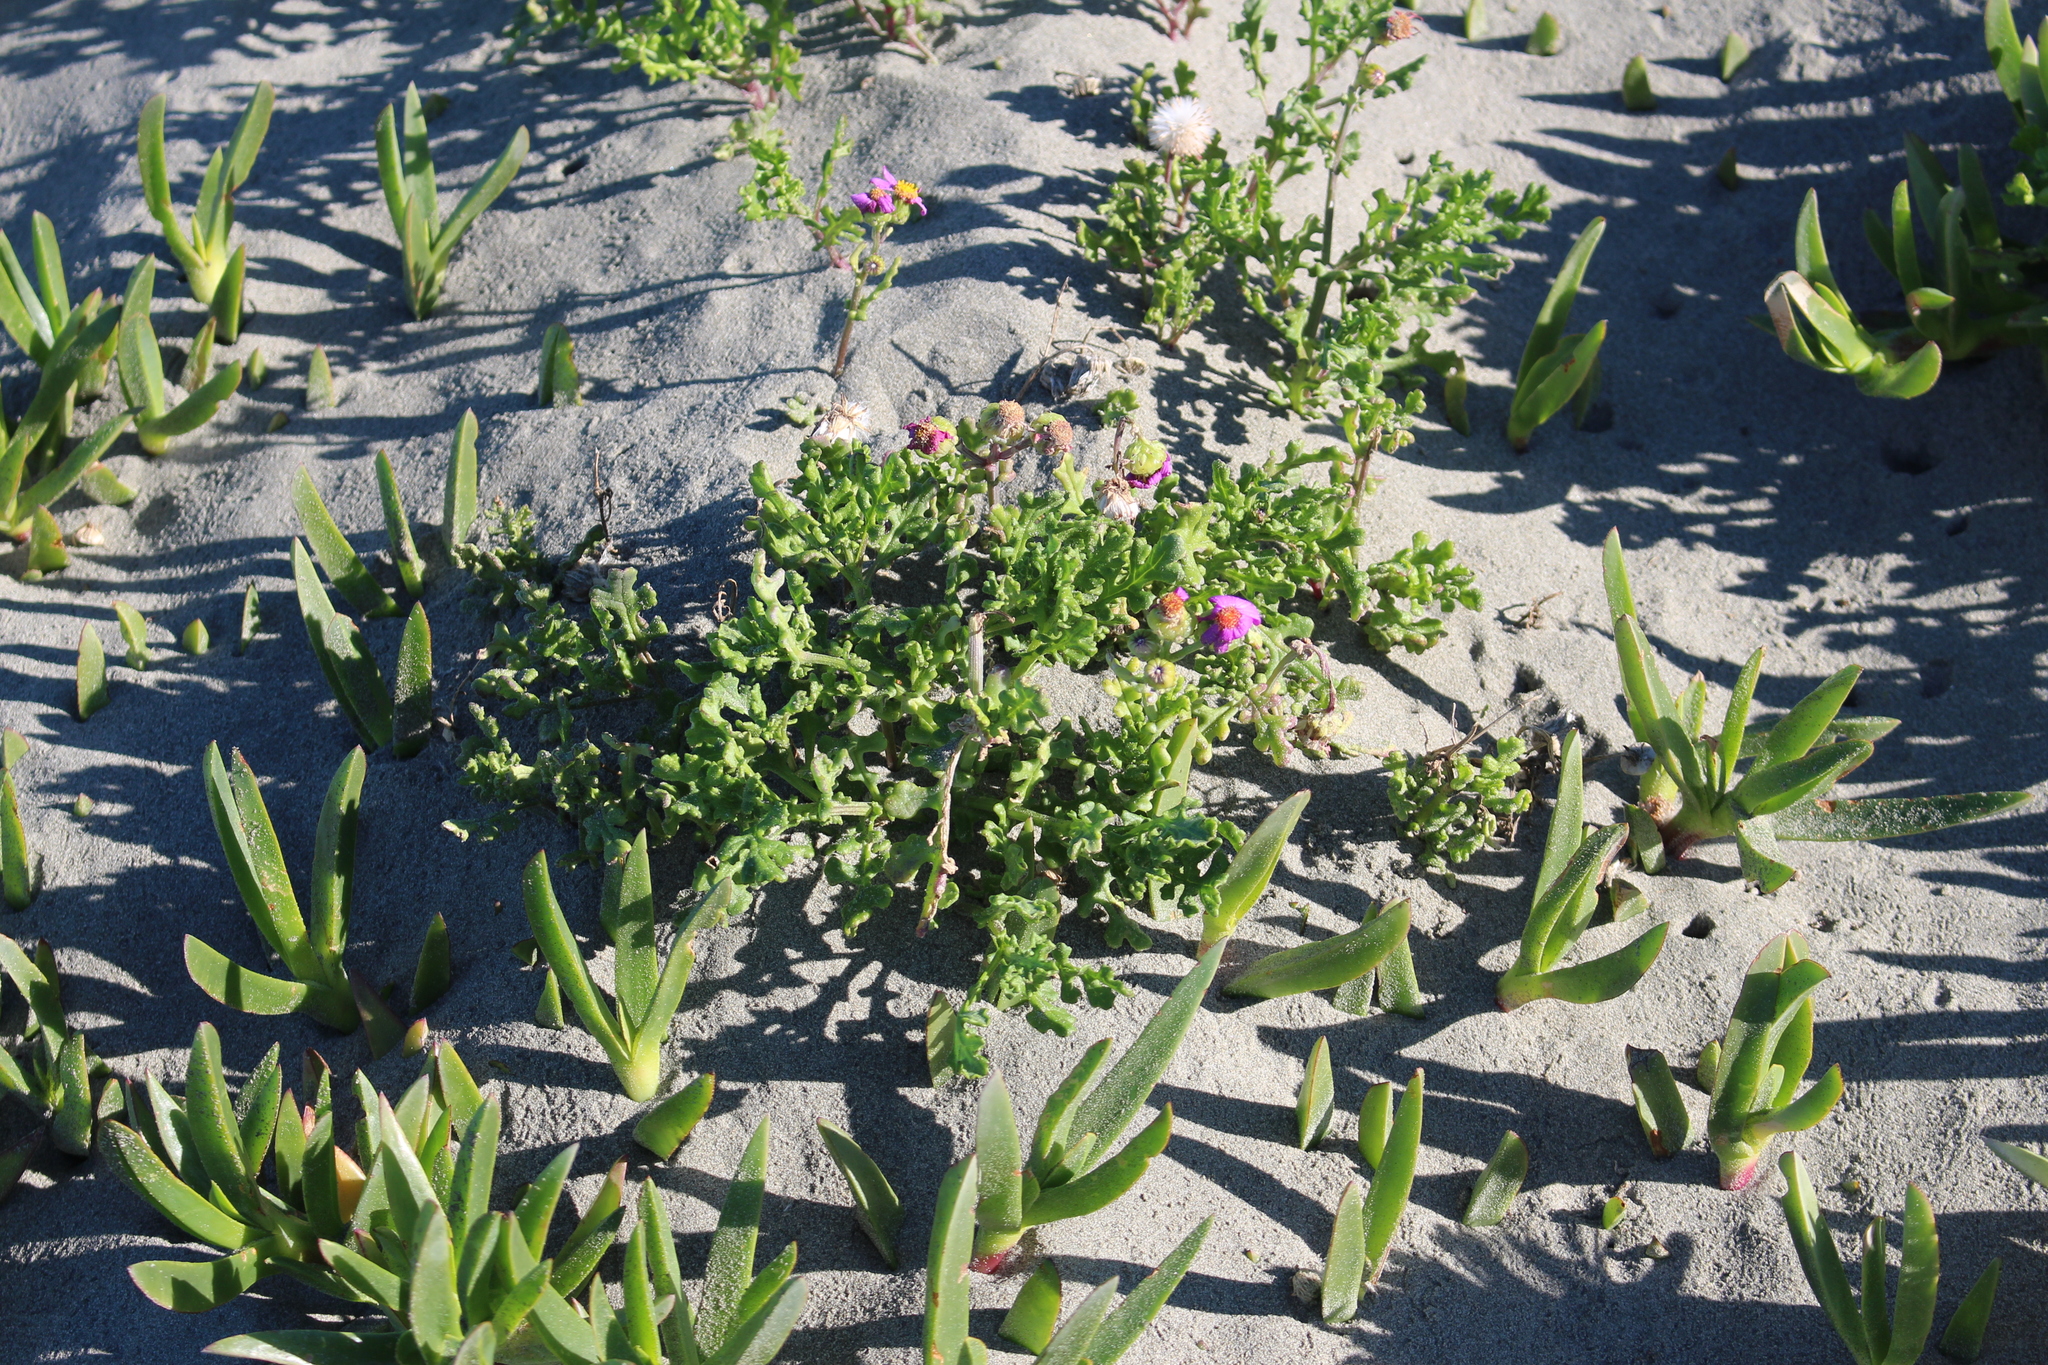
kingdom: Plantae
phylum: Tracheophyta
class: Magnoliopsida
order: Asterales
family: Asteraceae
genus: Senecio
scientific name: Senecio elegans
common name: Purple groundsel
